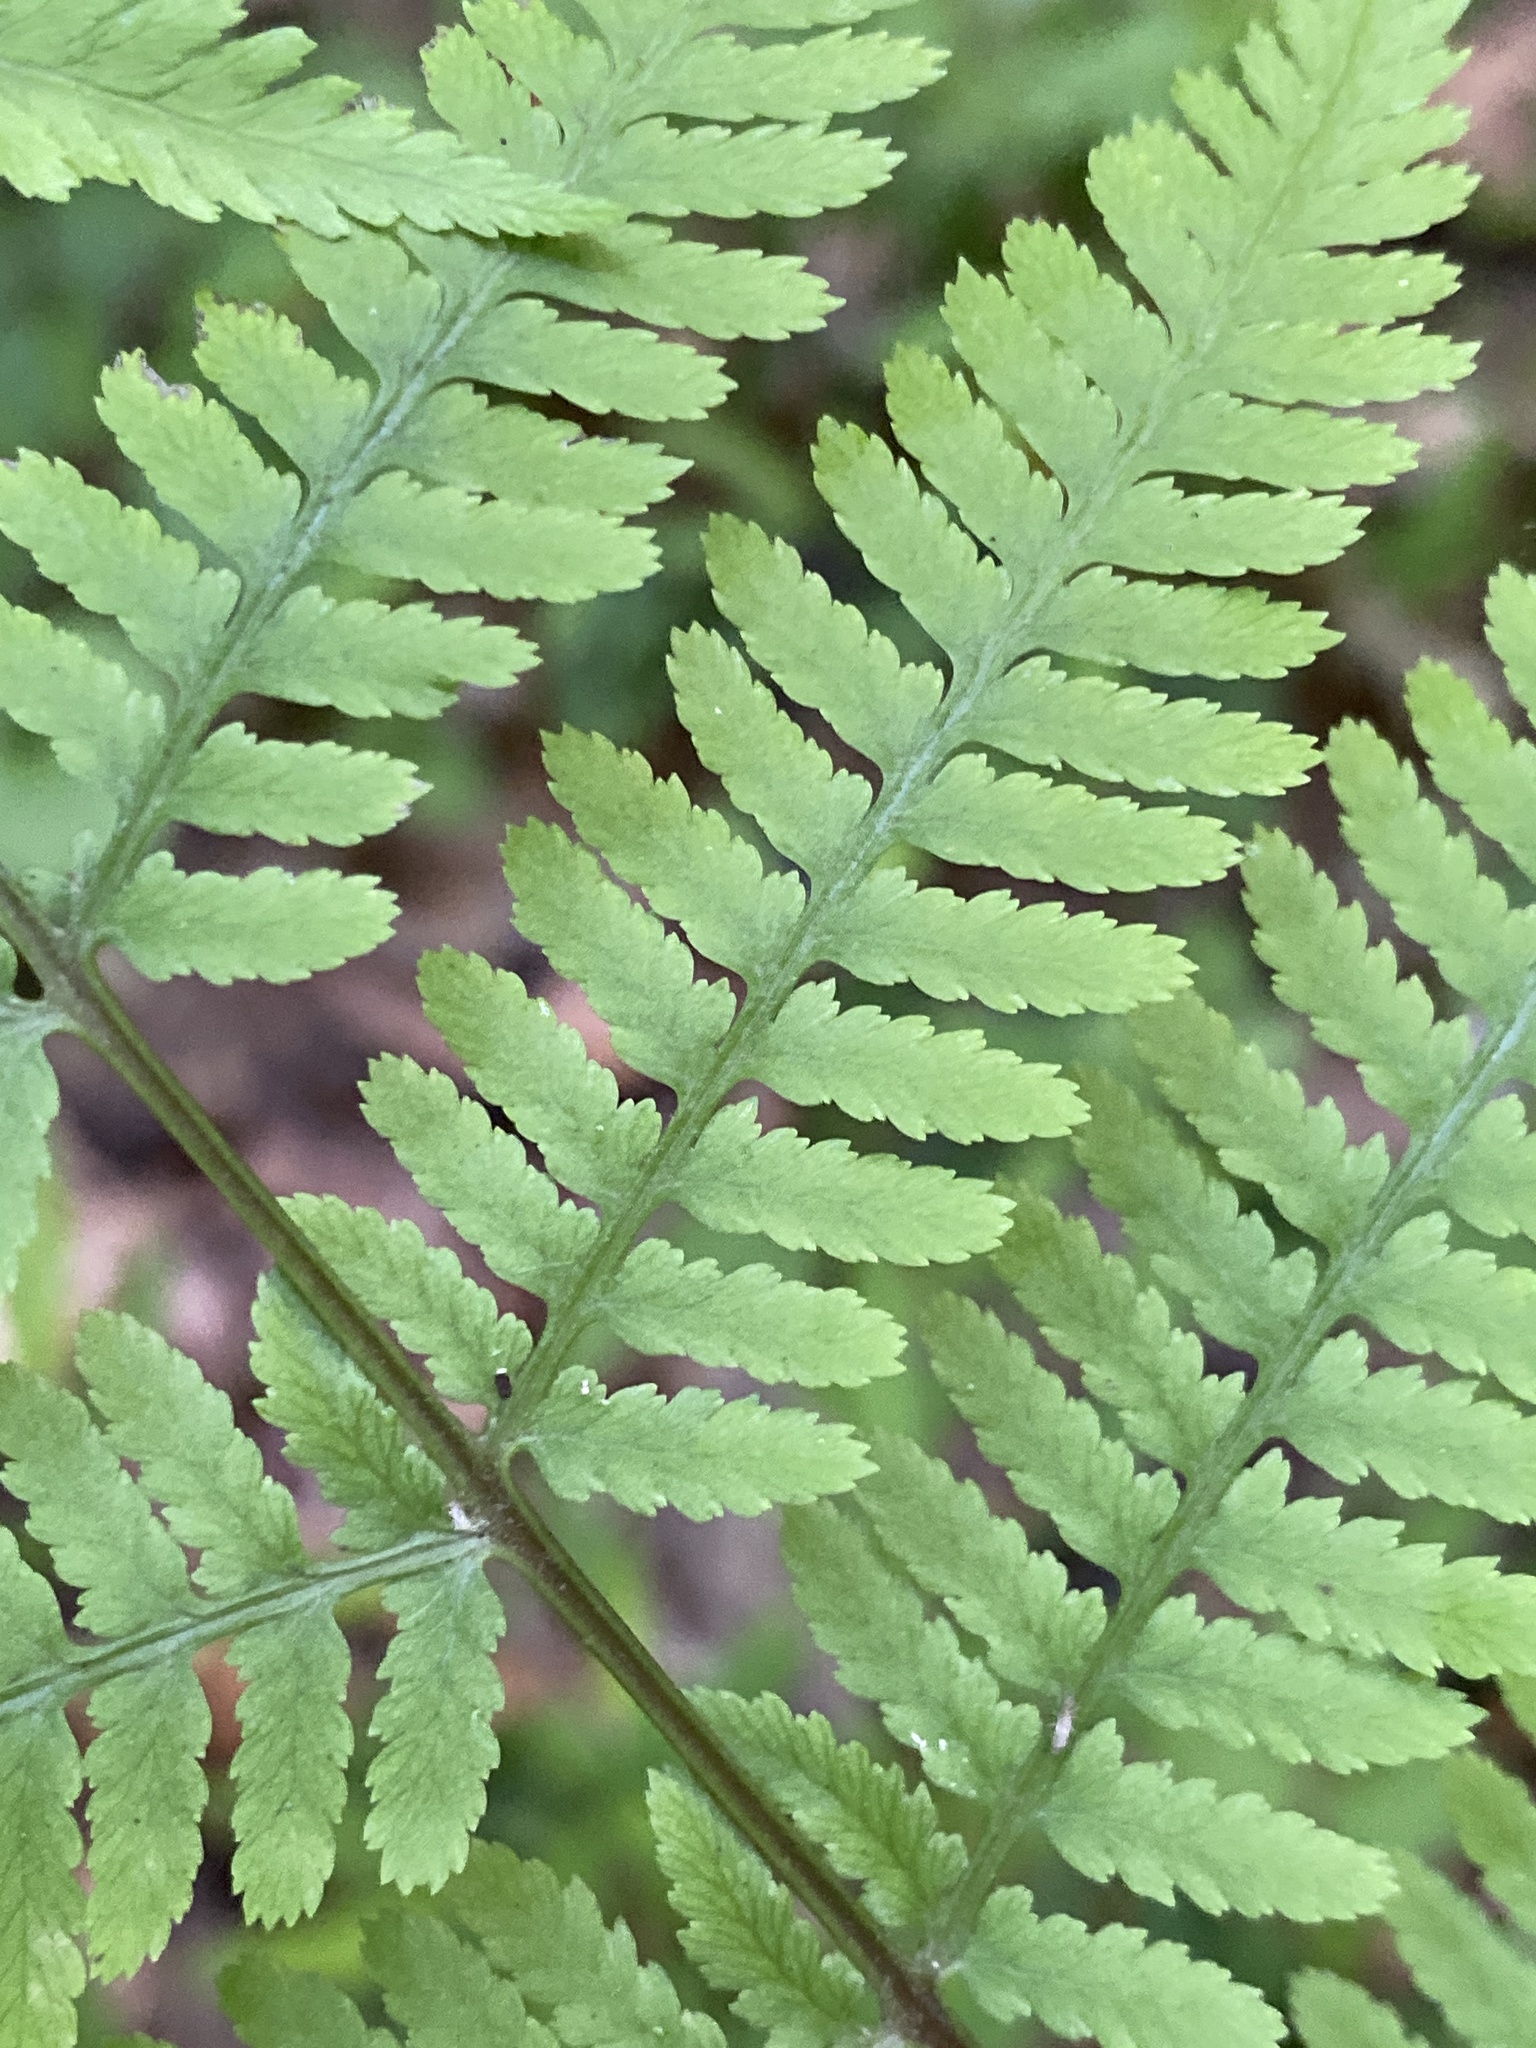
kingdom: Plantae
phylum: Tracheophyta
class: Polypodiopsida
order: Polypodiales
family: Athyriaceae
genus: Athyrium
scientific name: Athyrium asplenioides
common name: Southern lady fern
